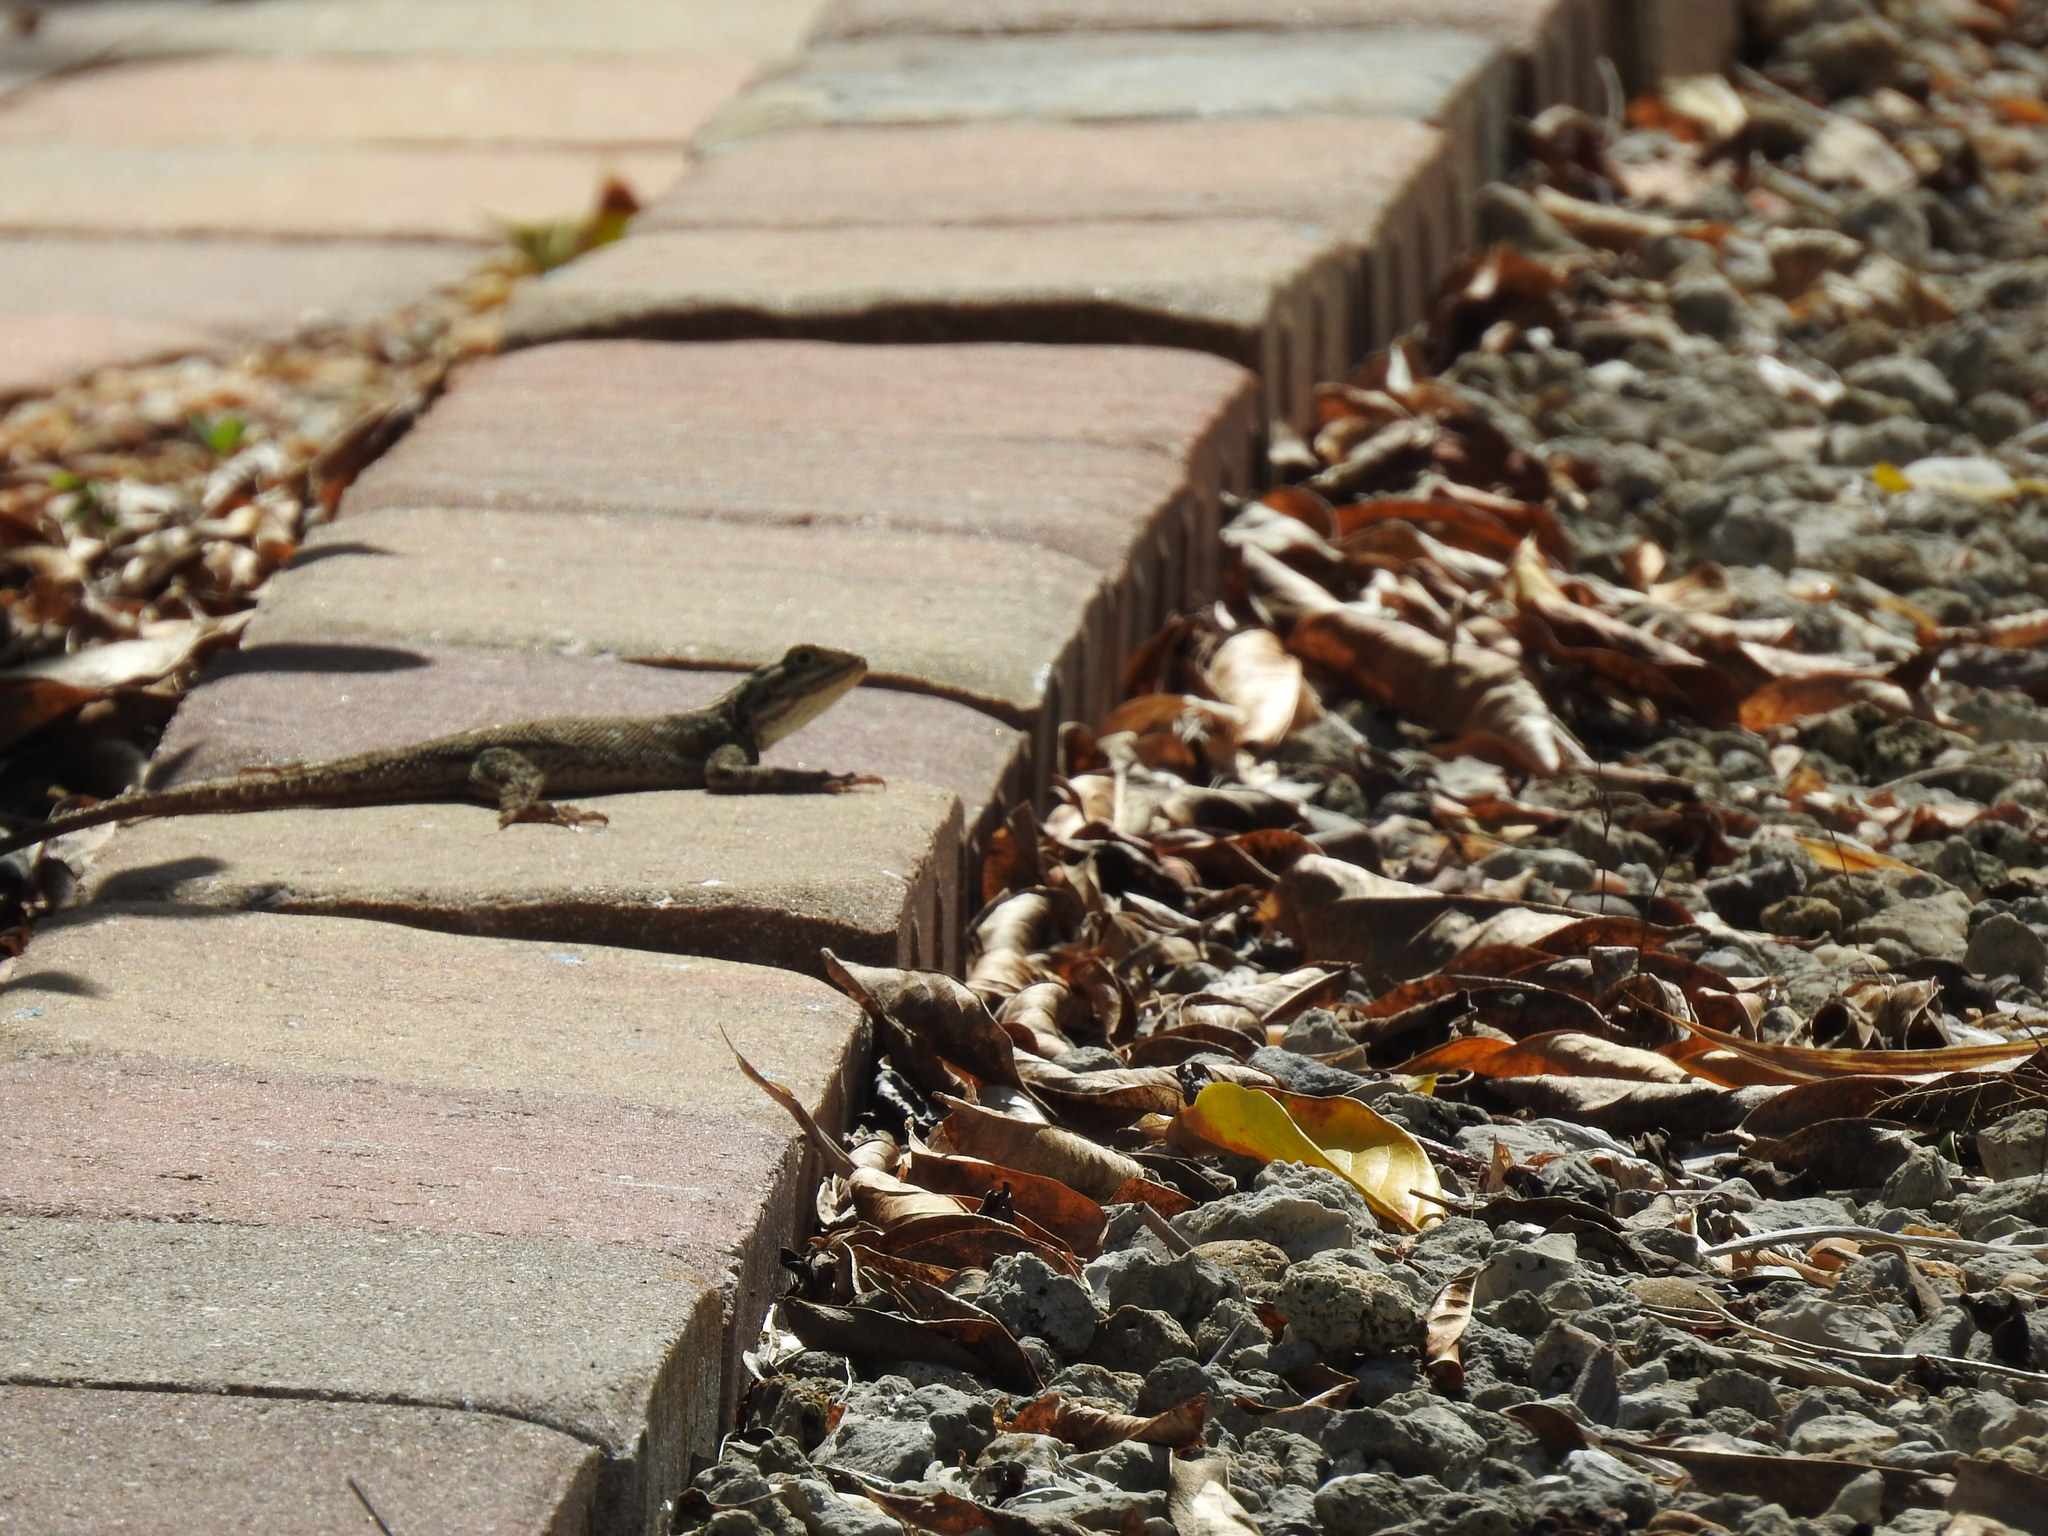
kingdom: Animalia
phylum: Chordata
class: Squamata
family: Agamidae
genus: Agama
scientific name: Agama picticauda
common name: Red-headed agama
